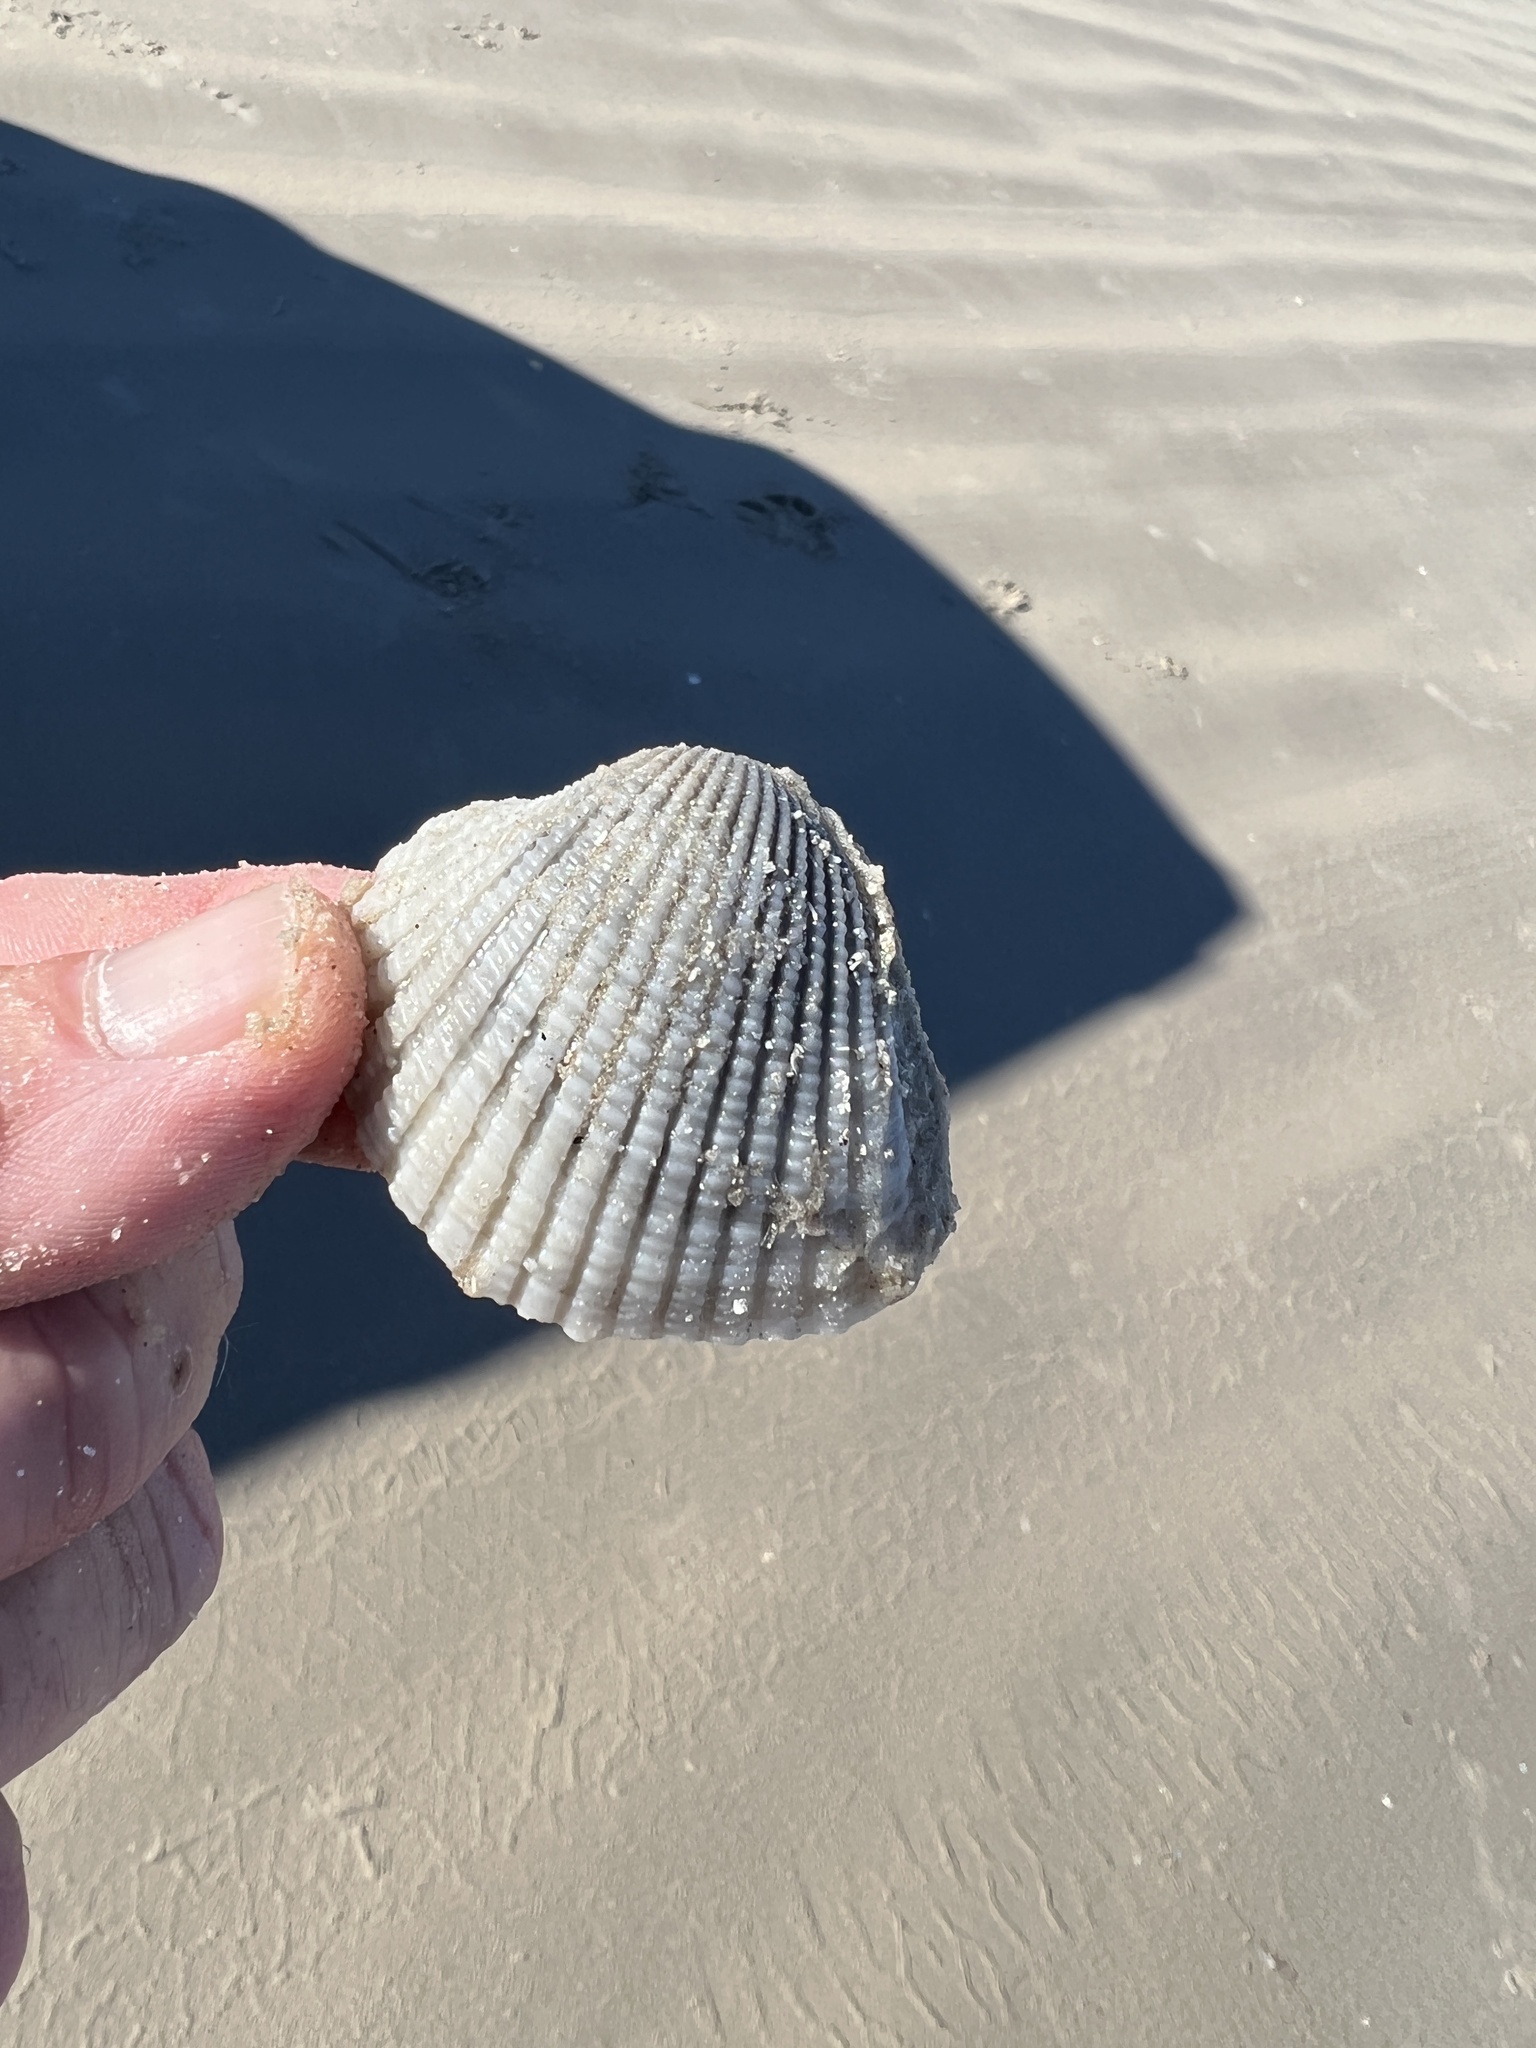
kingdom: Animalia
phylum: Mollusca
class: Bivalvia
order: Arcida
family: Arcidae
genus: Anadara
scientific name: Anadara brasiliana
